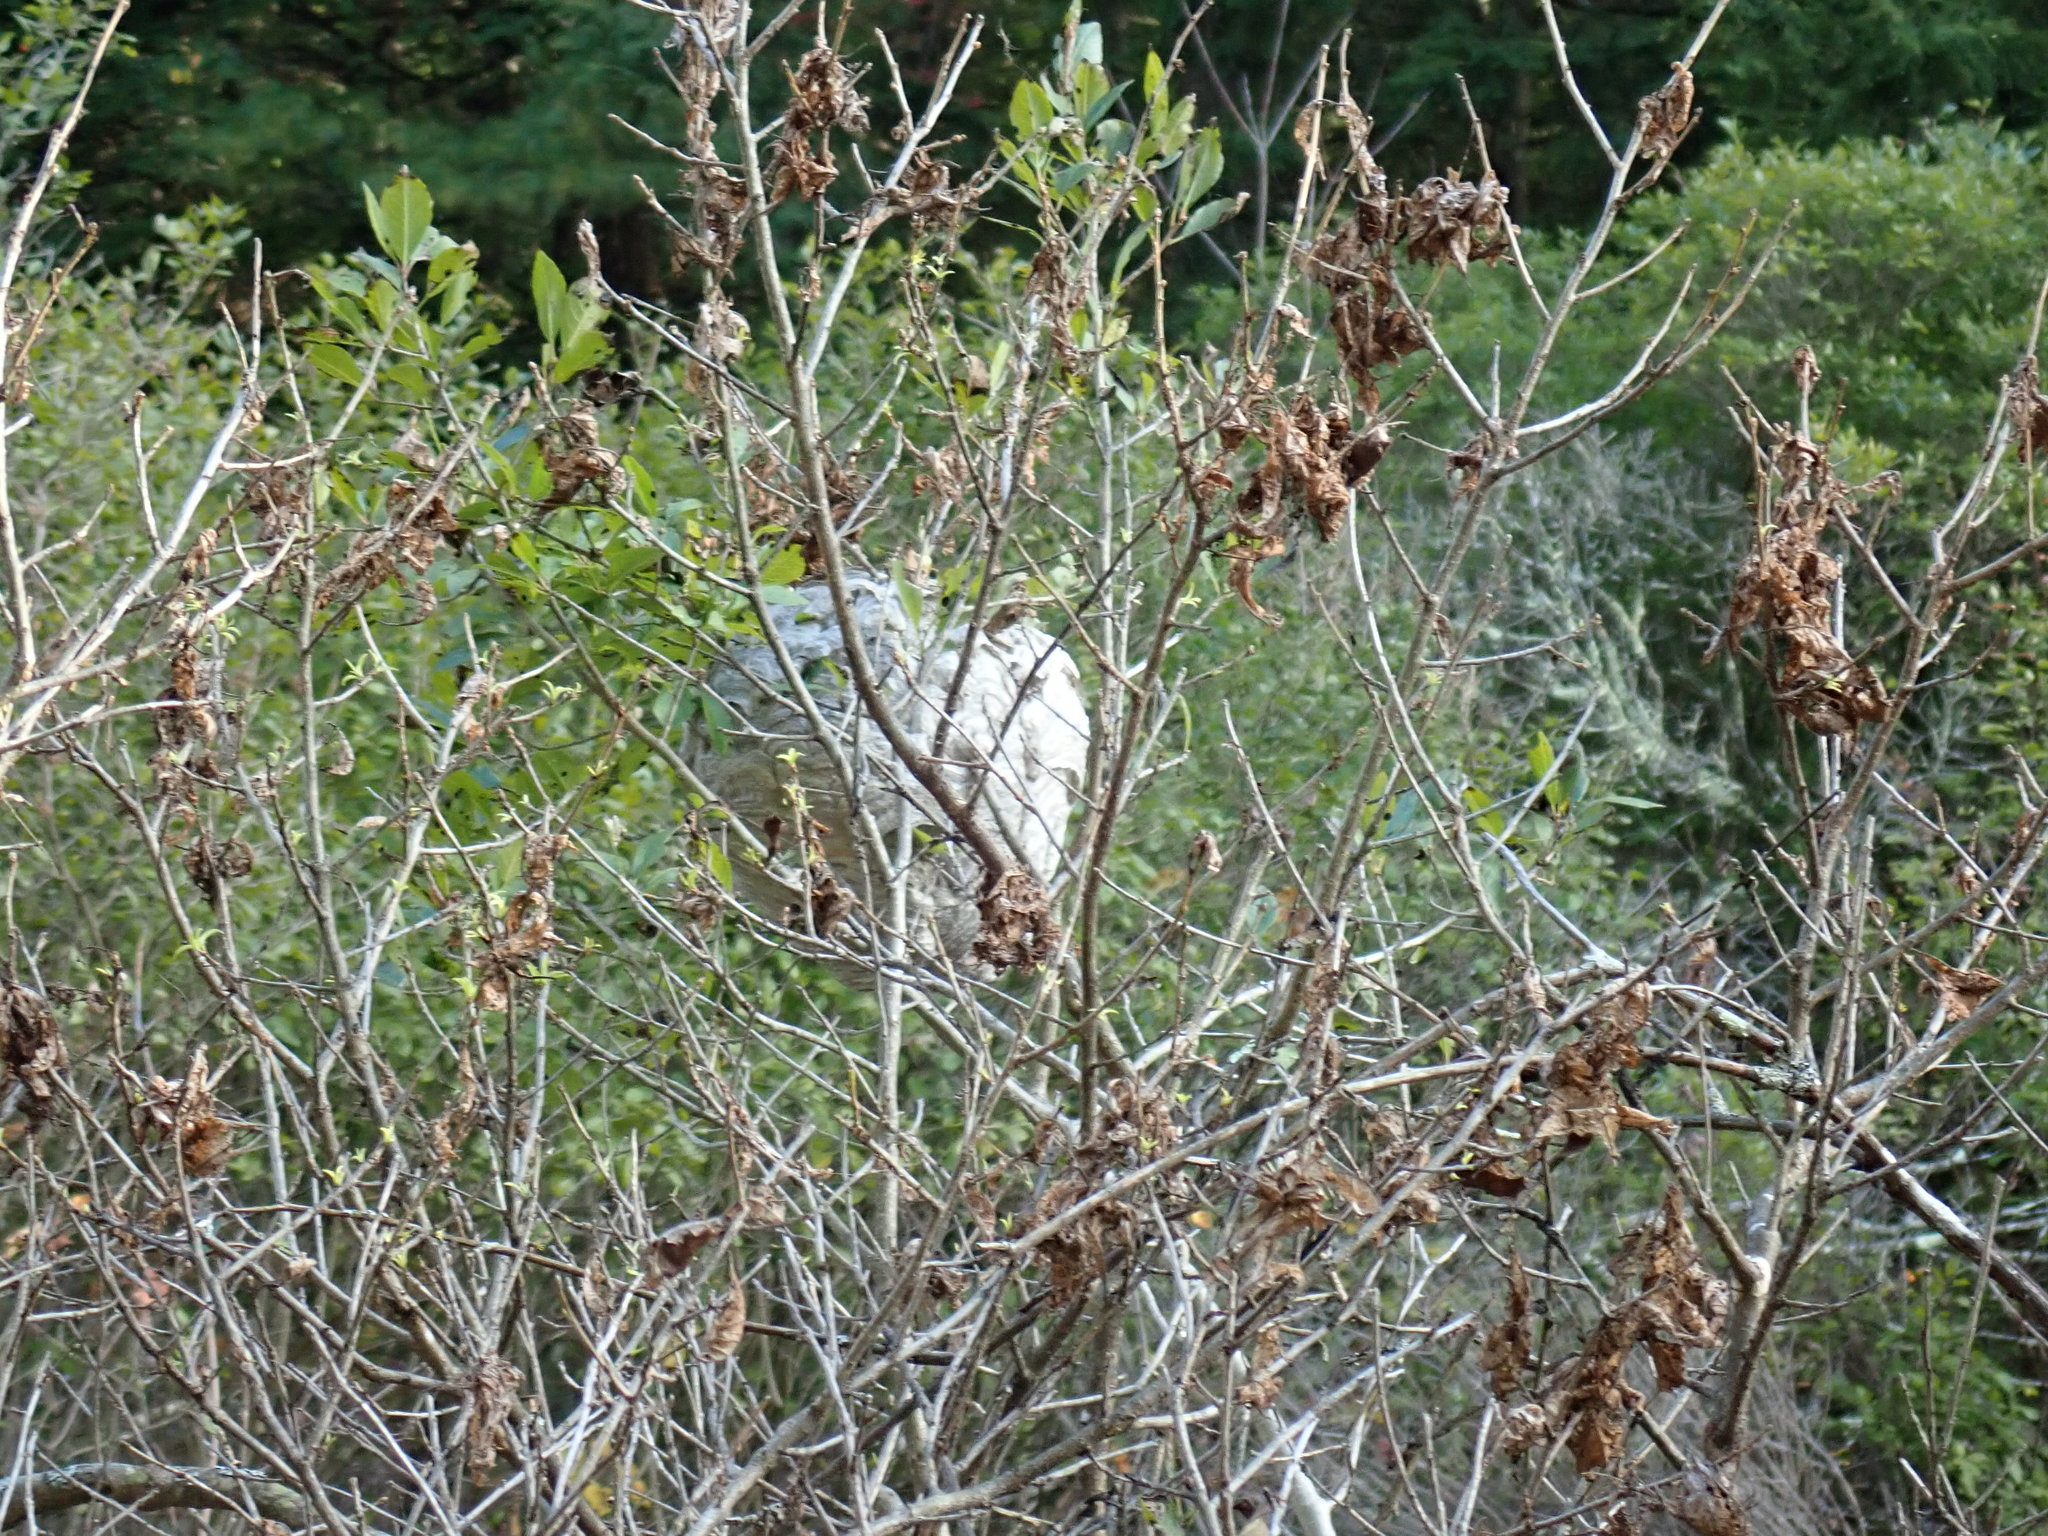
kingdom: Animalia
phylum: Arthropoda
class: Insecta
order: Hymenoptera
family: Vespidae
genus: Dolichovespula
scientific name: Dolichovespula maculata
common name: Bald-faced hornet
